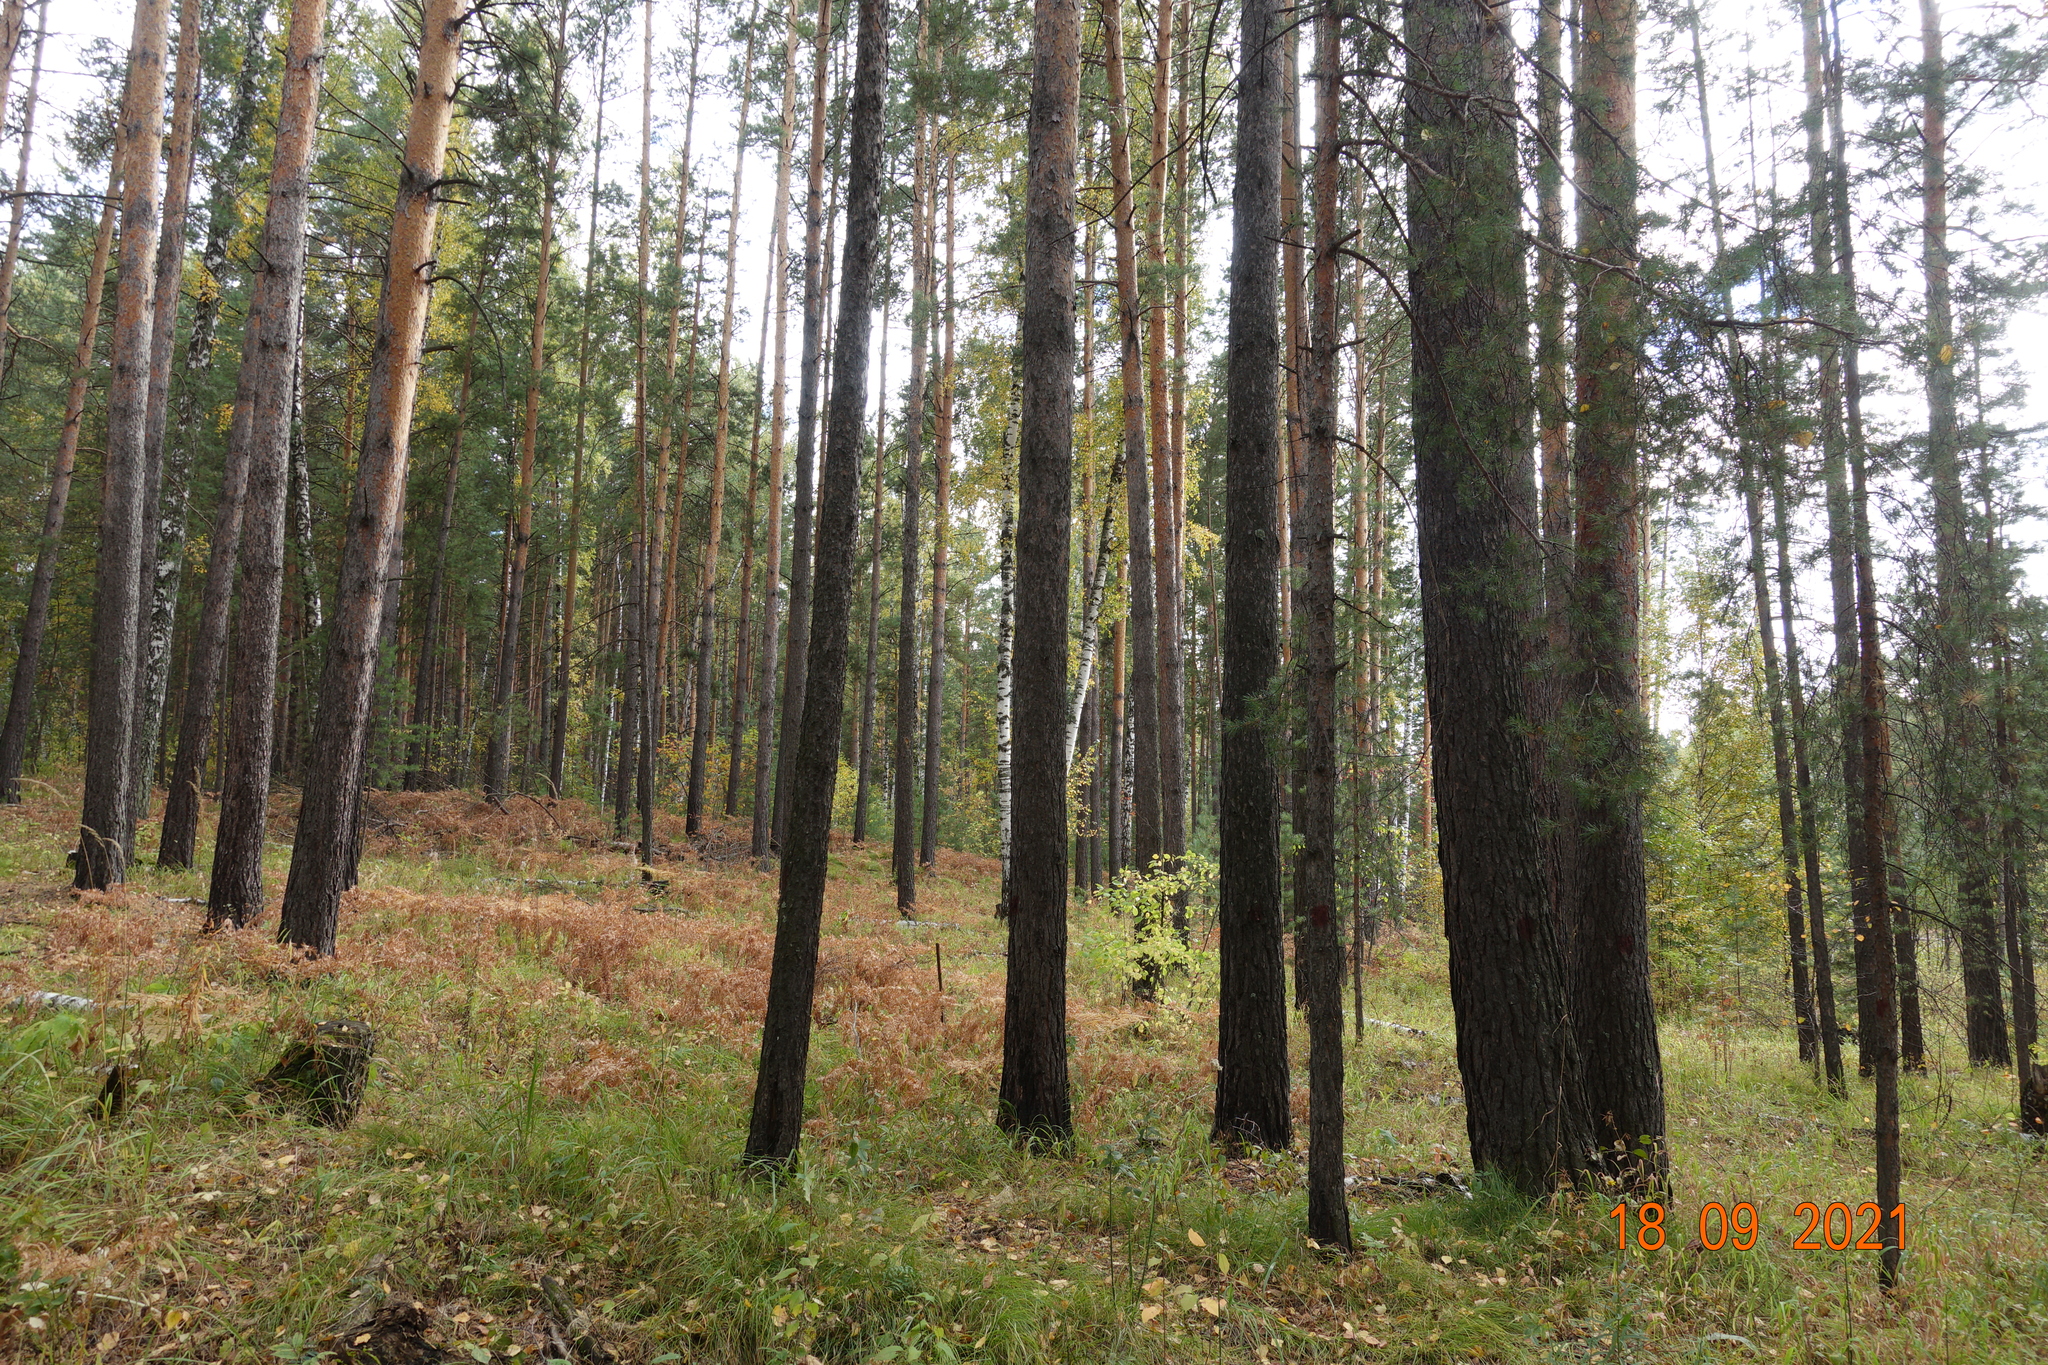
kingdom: Plantae
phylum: Tracheophyta
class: Pinopsida
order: Pinales
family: Pinaceae
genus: Pinus
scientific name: Pinus sylvestris
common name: Scots pine
